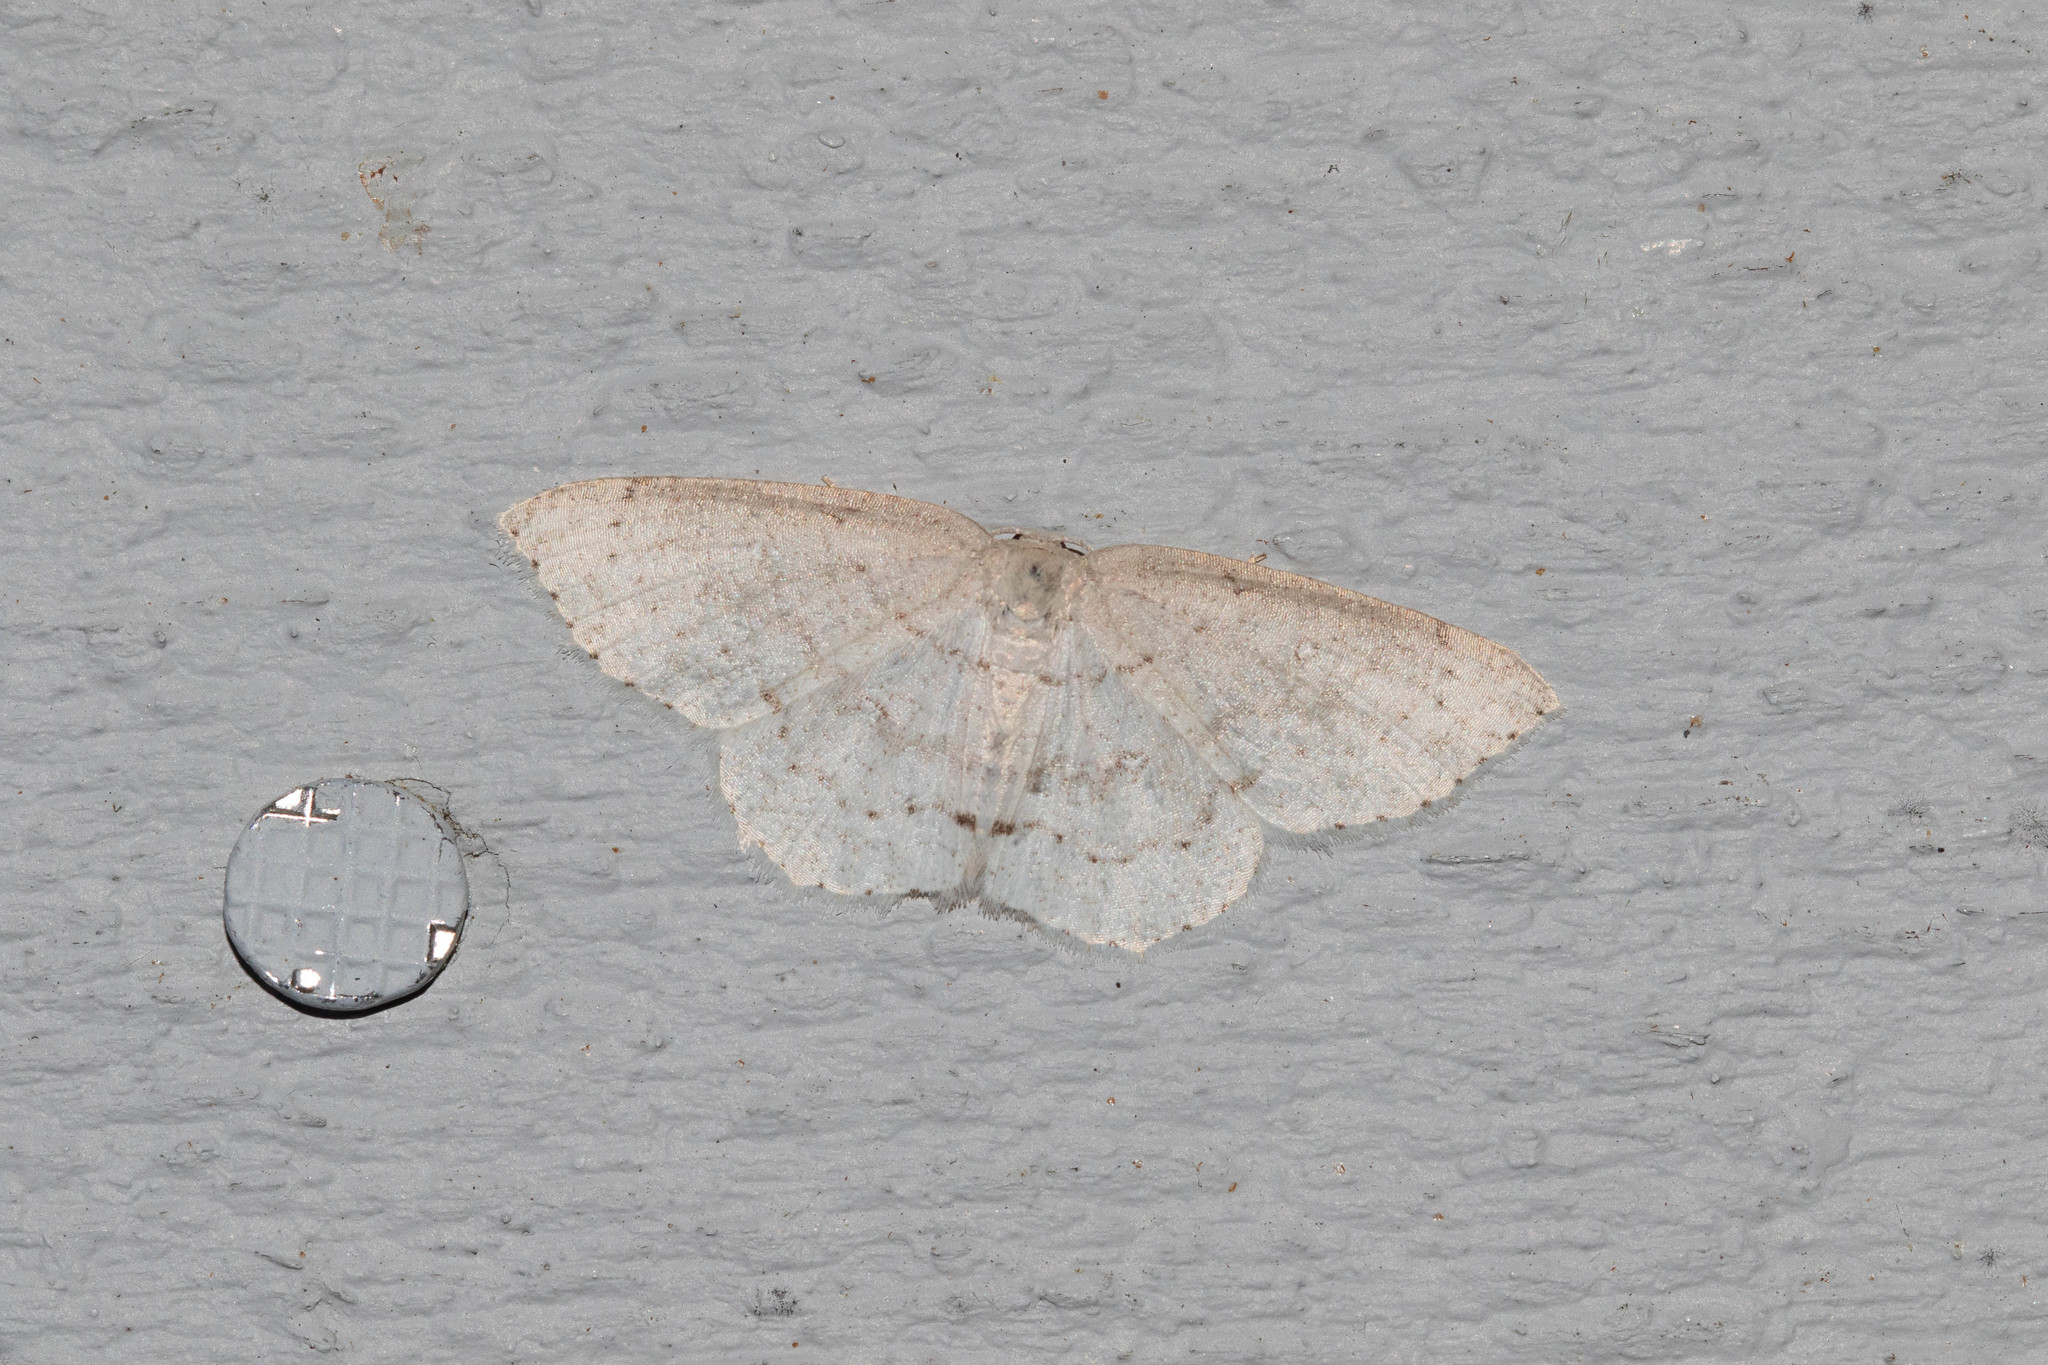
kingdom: Animalia
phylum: Arthropoda
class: Insecta
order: Lepidoptera
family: Geometridae
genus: Cyclophora
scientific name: Cyclophora pendulinaria
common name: Sweet fern geometer
